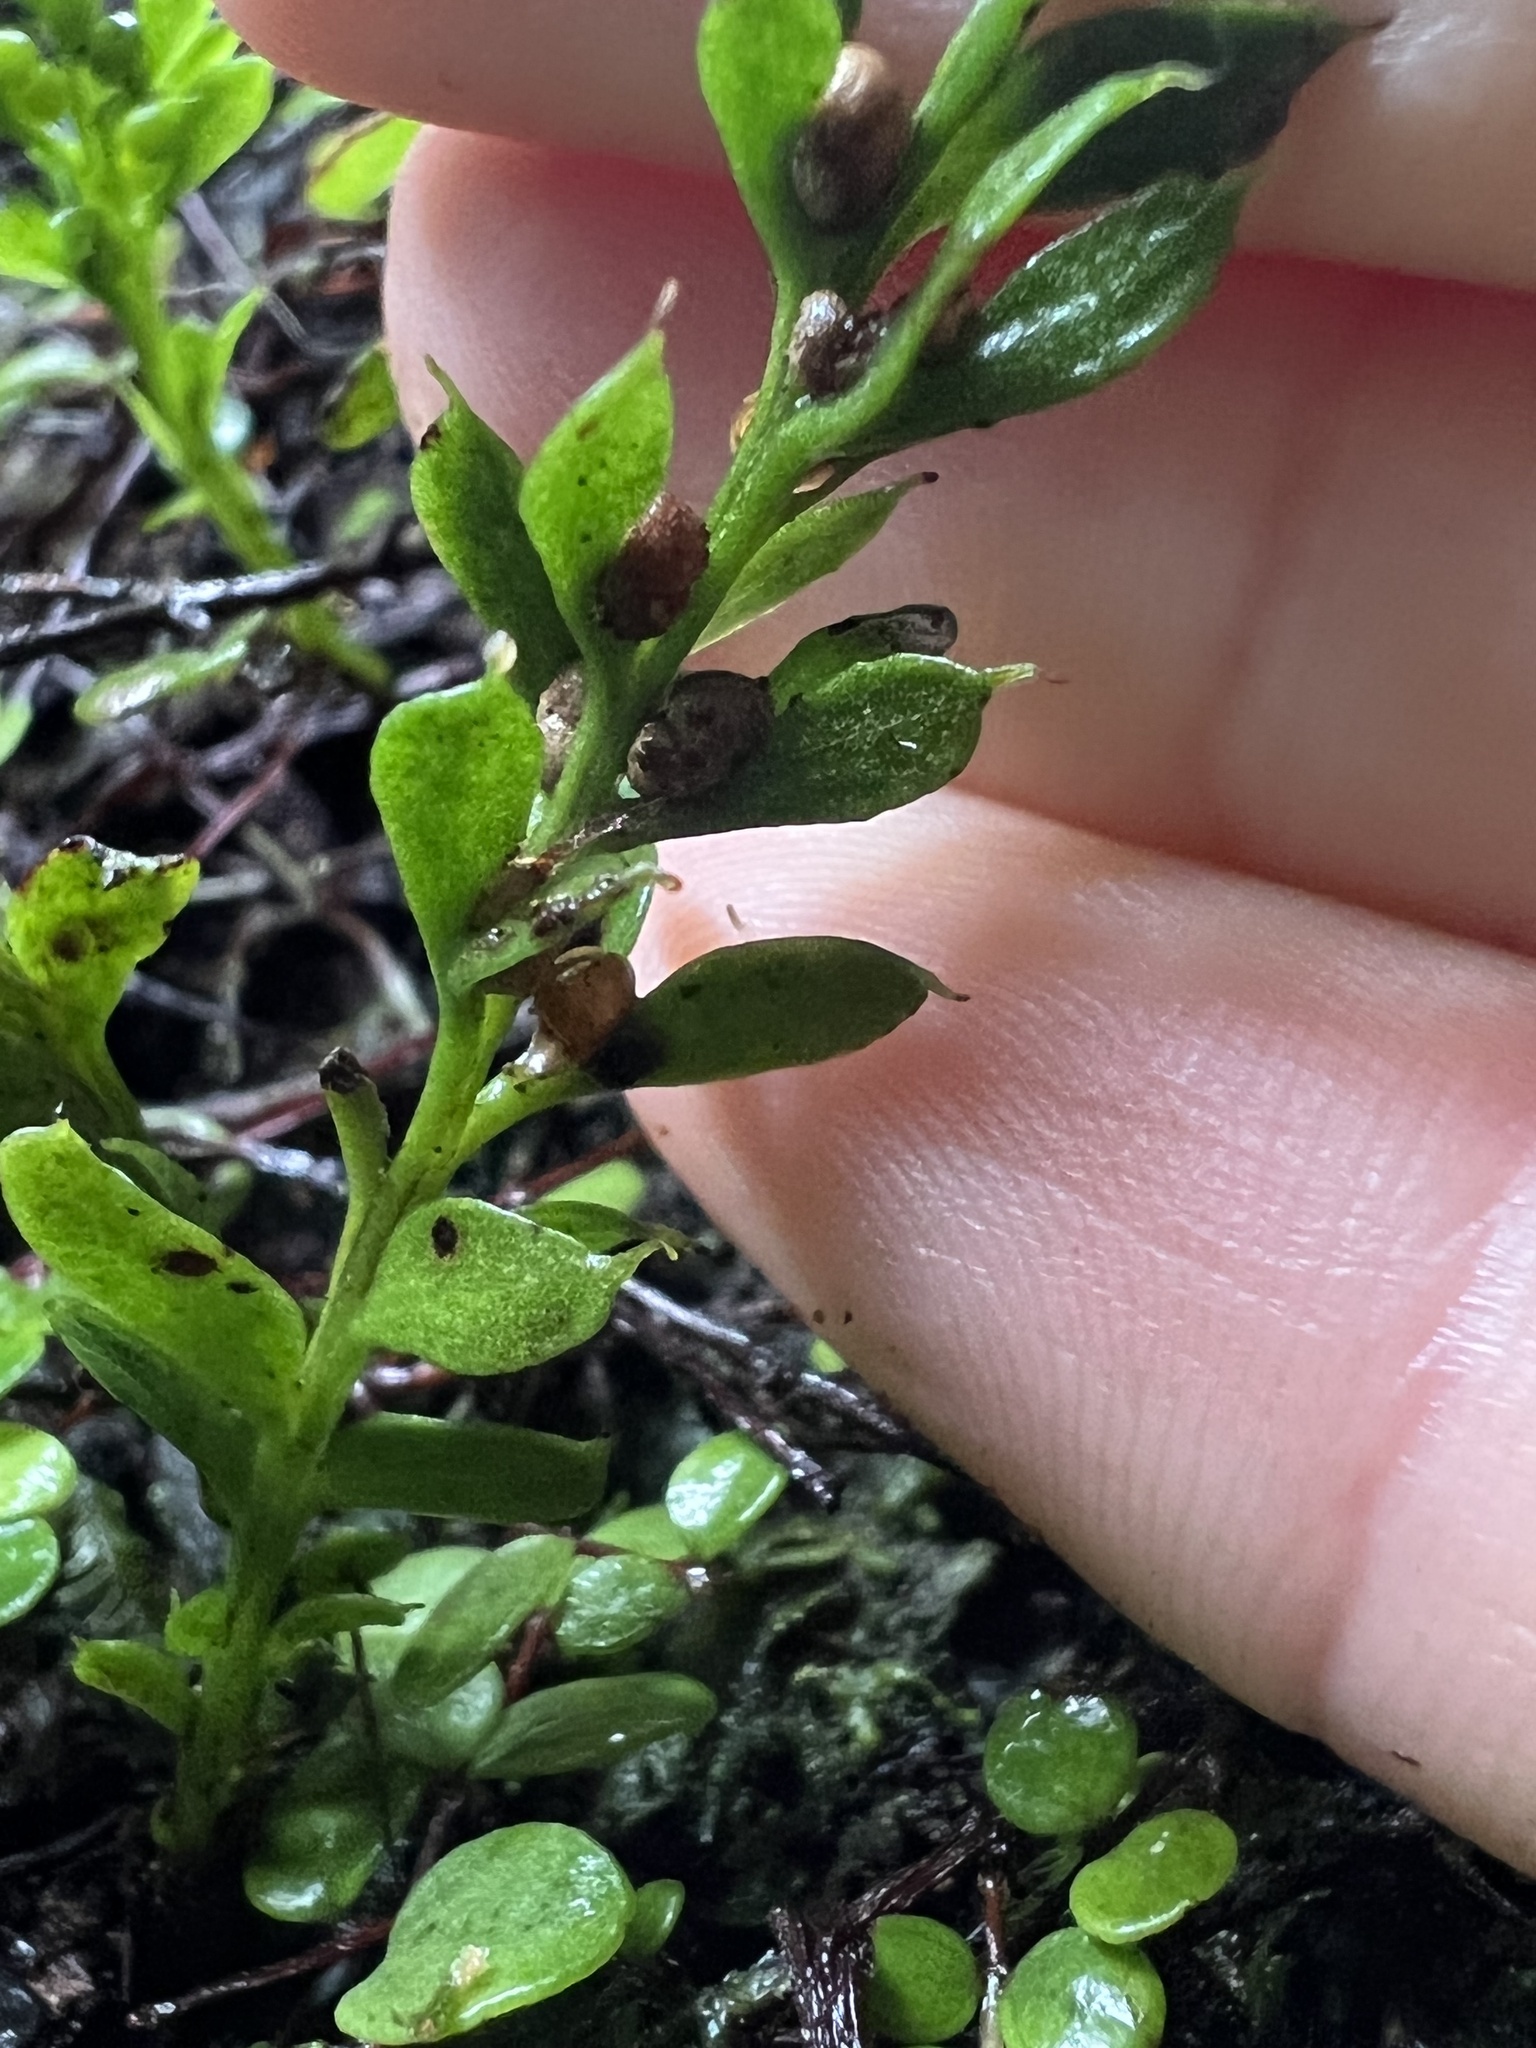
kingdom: Plantae
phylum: Tracheophyta
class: Polypodiopsida
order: Psilotales
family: Psilotaceae
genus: Tmesipteris
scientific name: Tmesipteris lanceolata
